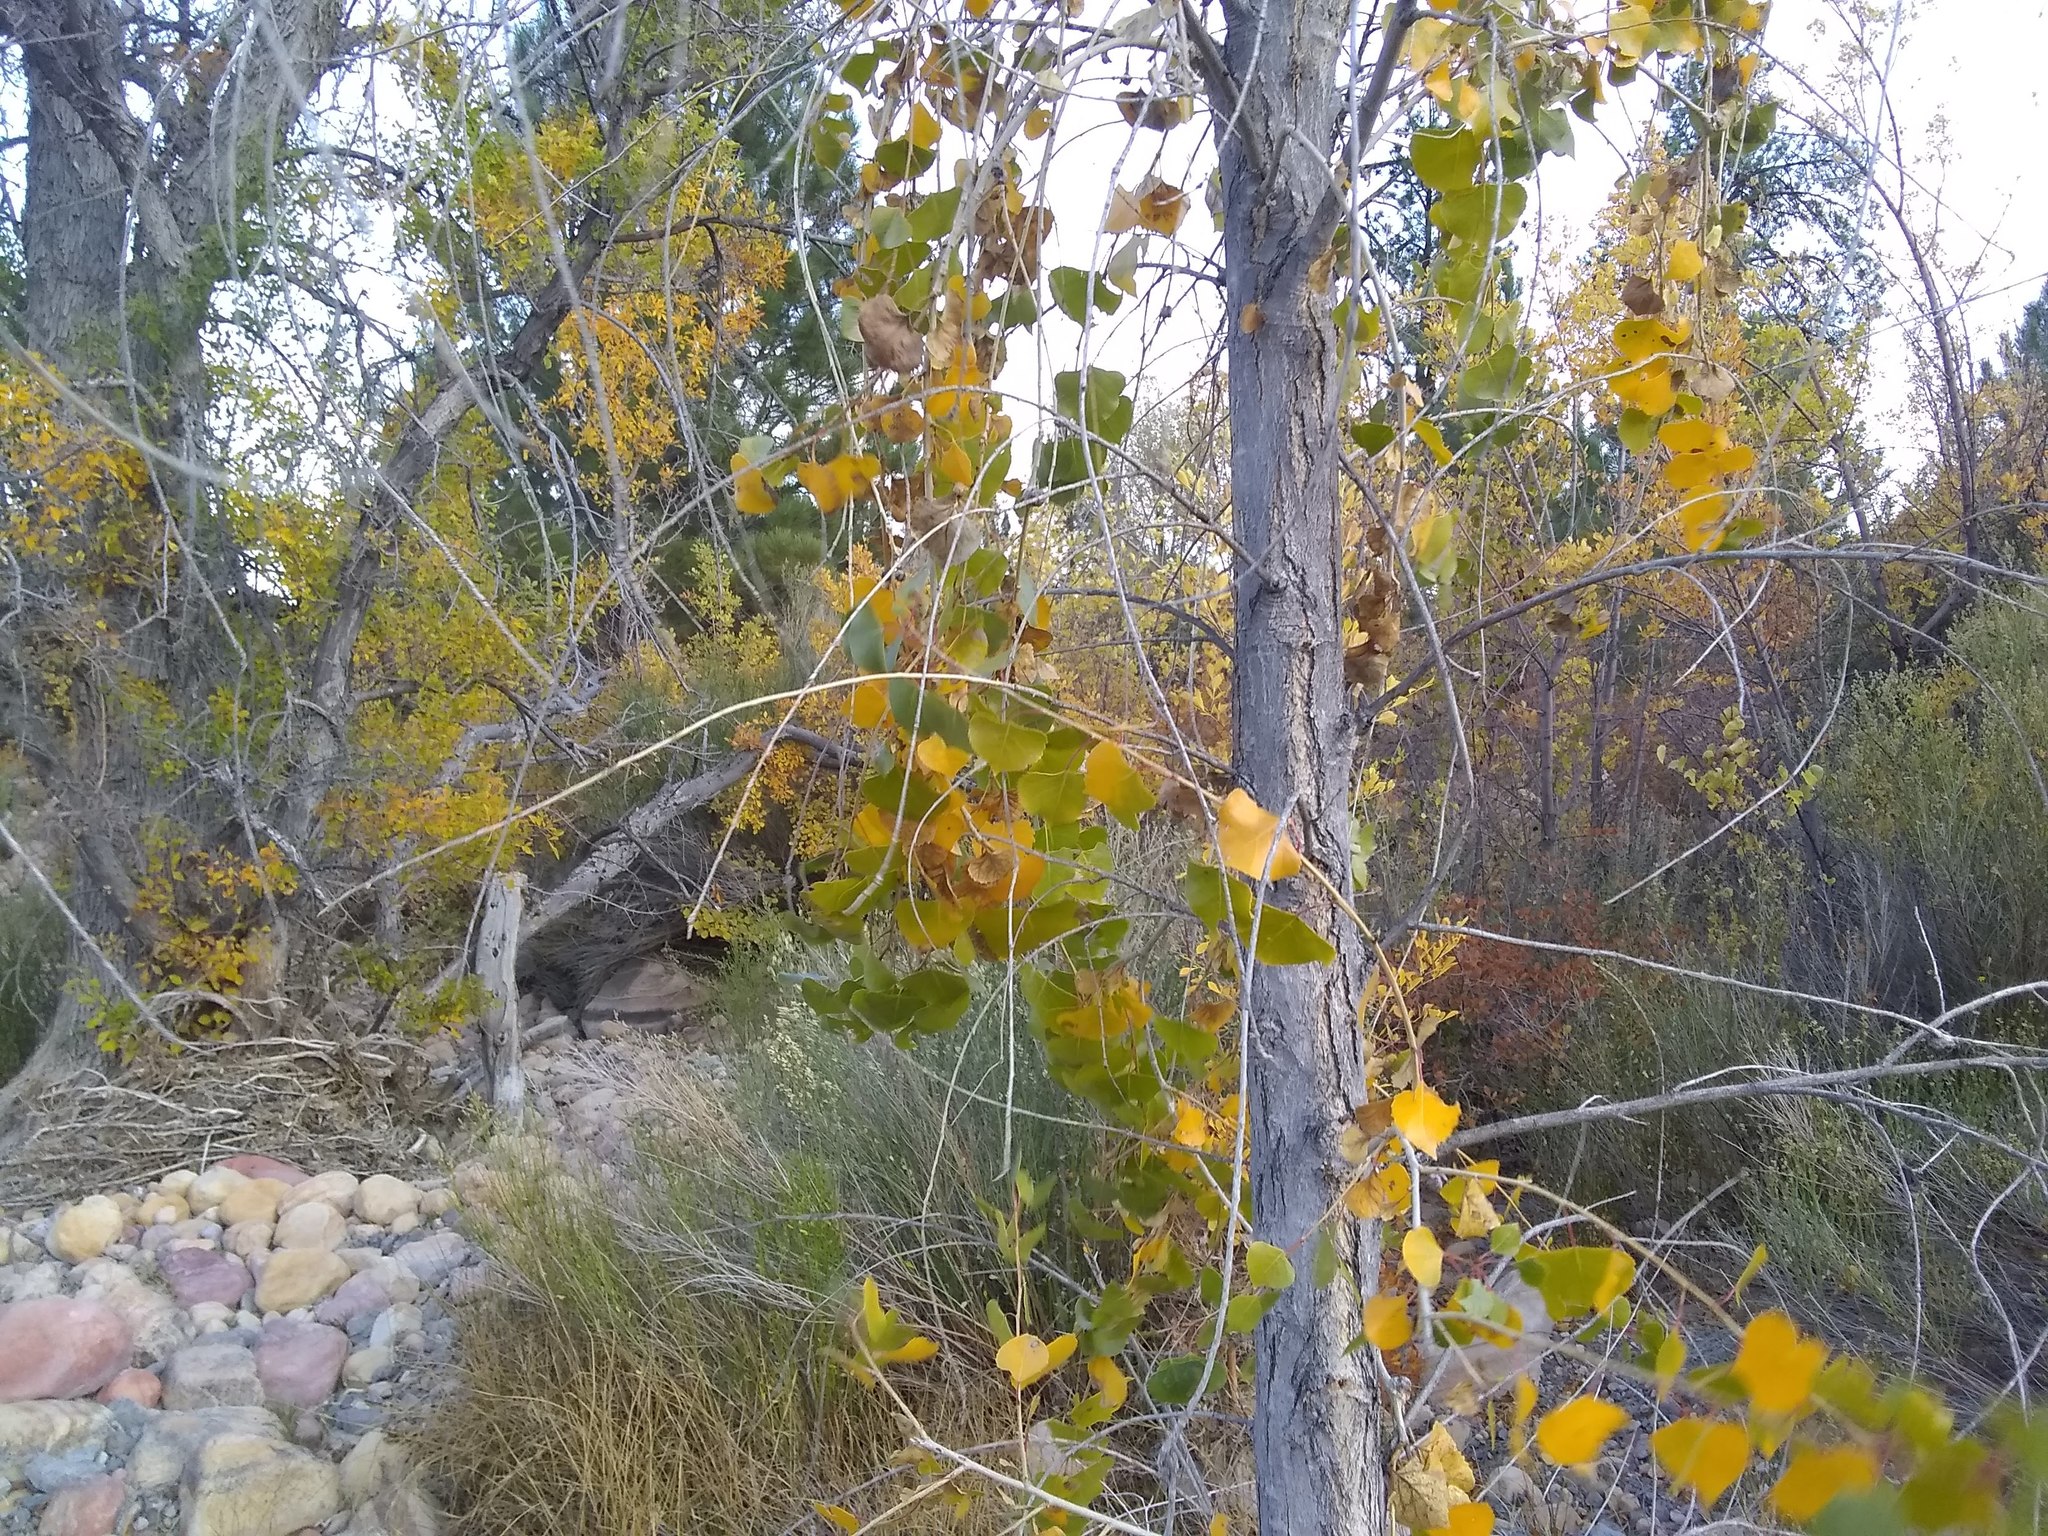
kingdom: Plantae
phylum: Tracheophyta
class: Magnoliopsida
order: Malpighiales
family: Salicaceae
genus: Populus
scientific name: Populus fremontii
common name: Fremont's cottonwood
